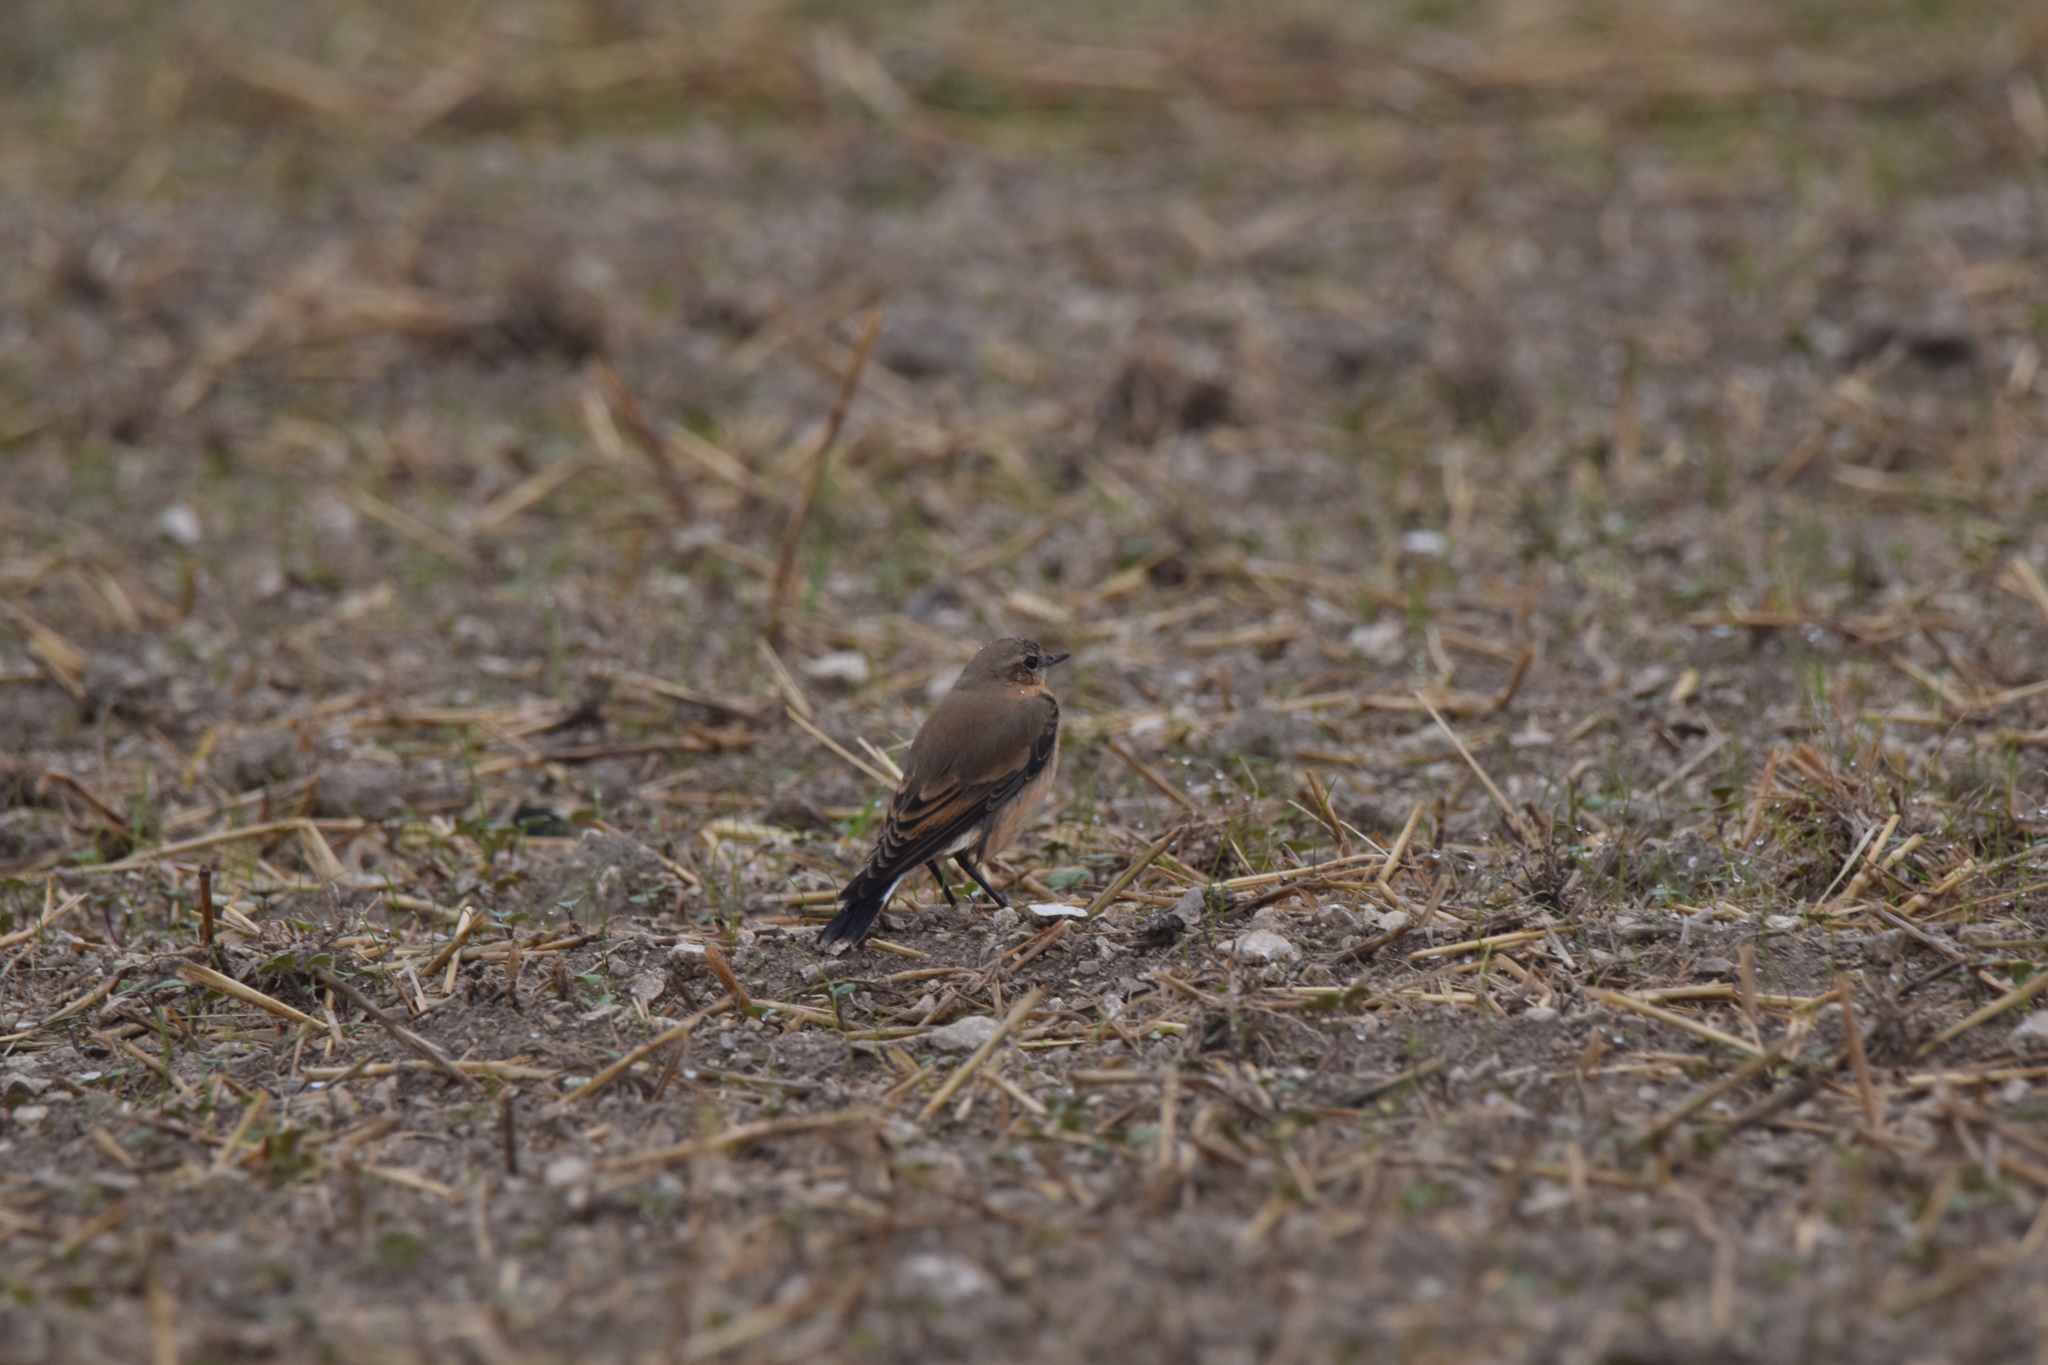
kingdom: Animalia
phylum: Chordata
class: Aves
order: Passeriformes
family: Muscicapidae
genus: Oenanthe
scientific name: Oenanthe oenanthe
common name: Northern wheatear
